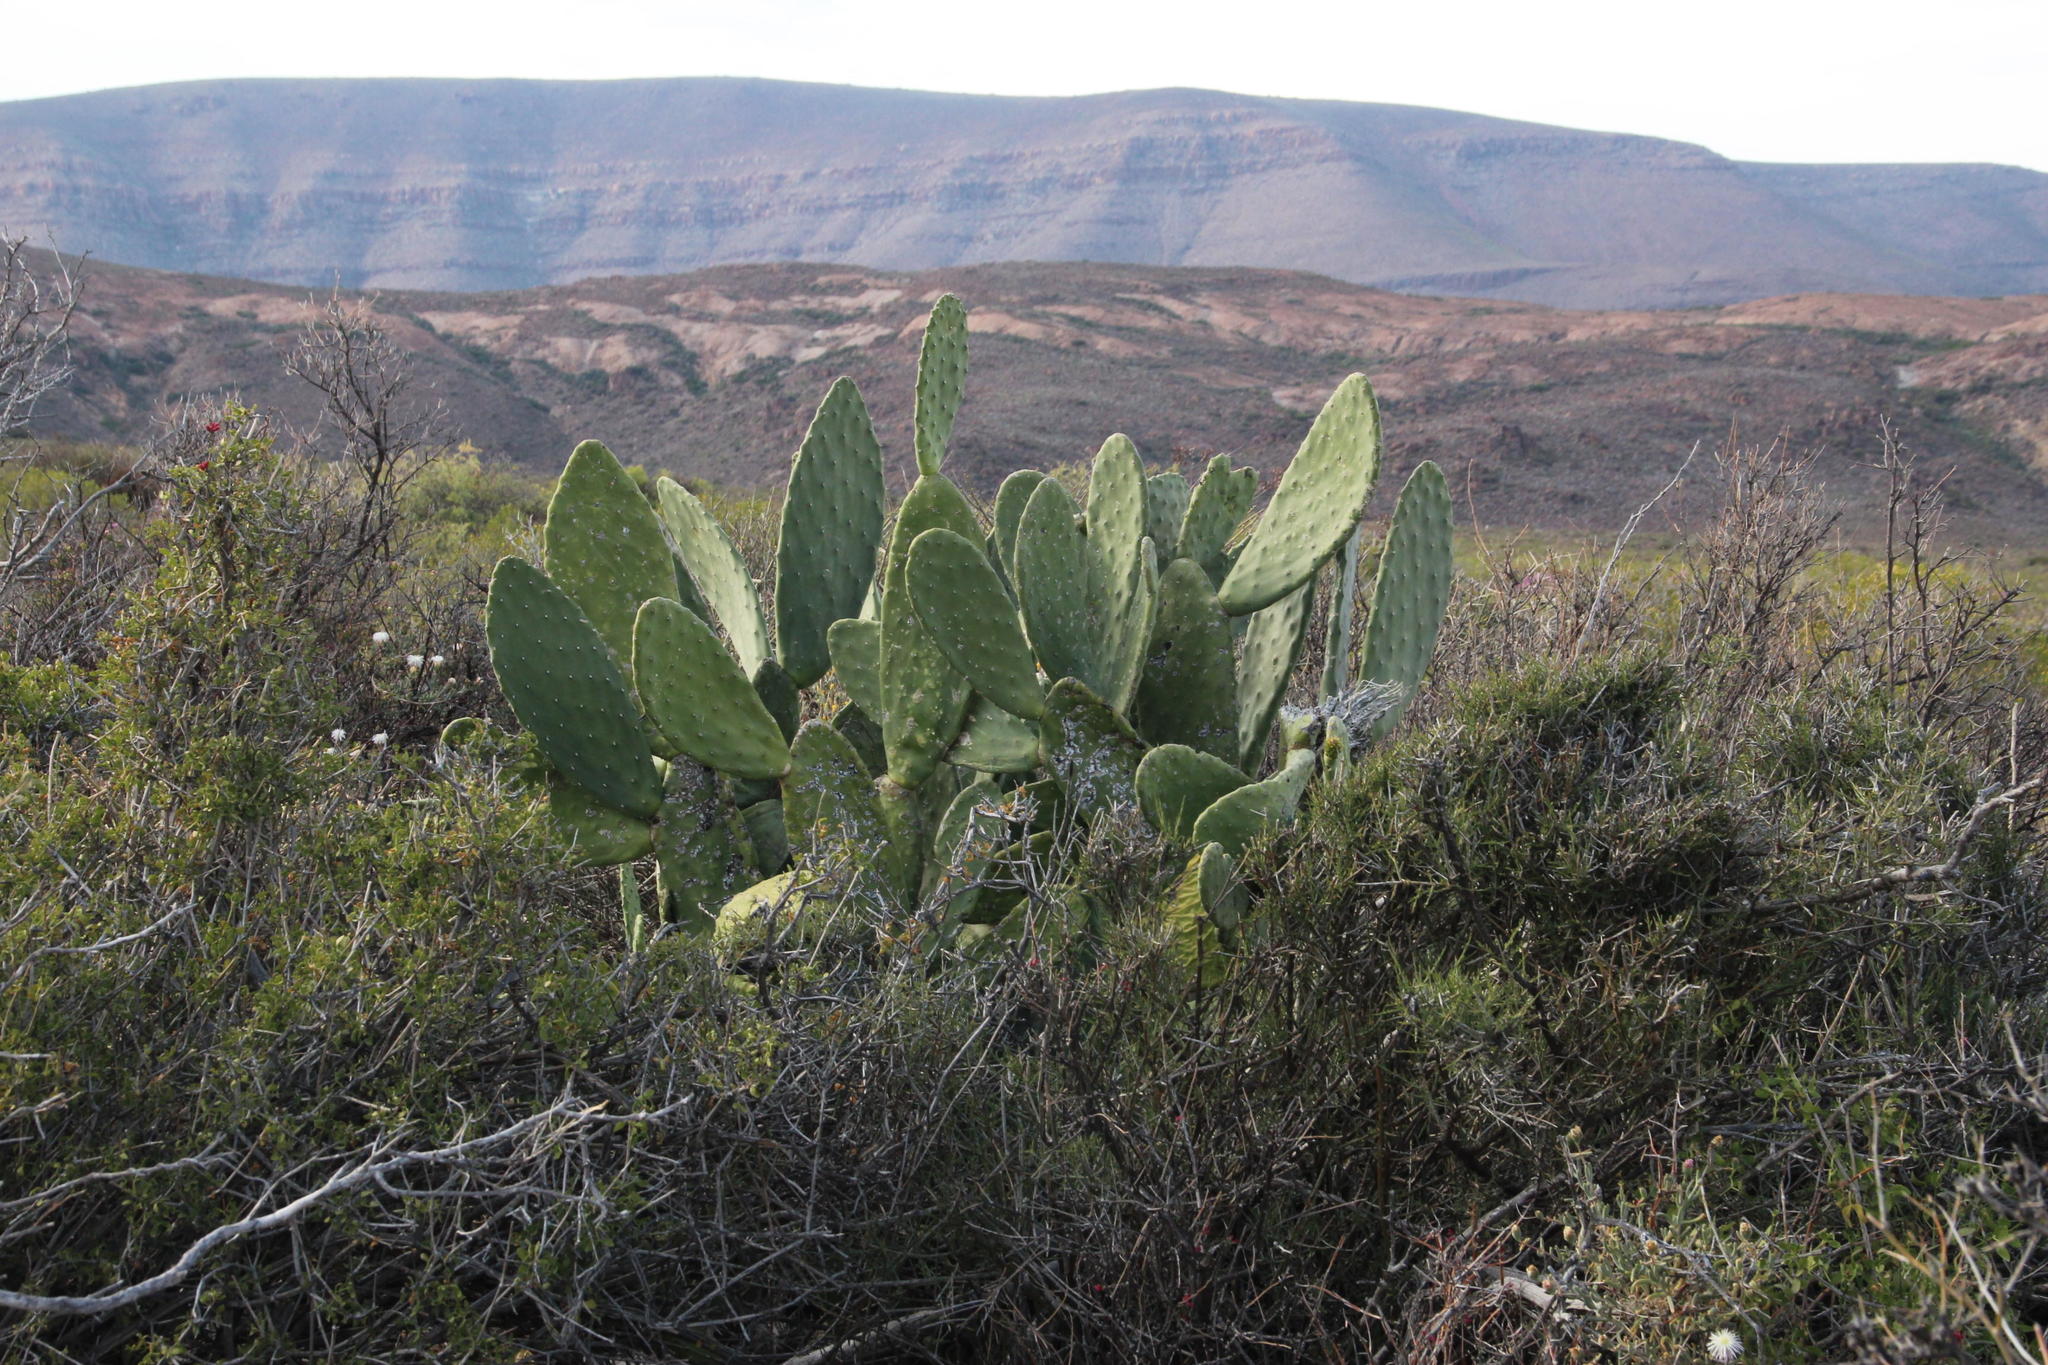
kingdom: Plantae
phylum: Tracheophyta
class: Magnoliopsida
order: Caryophyllales
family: Cactaceae
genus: Opuntia
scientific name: Opuntia ficus-indica
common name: Barbary fig
